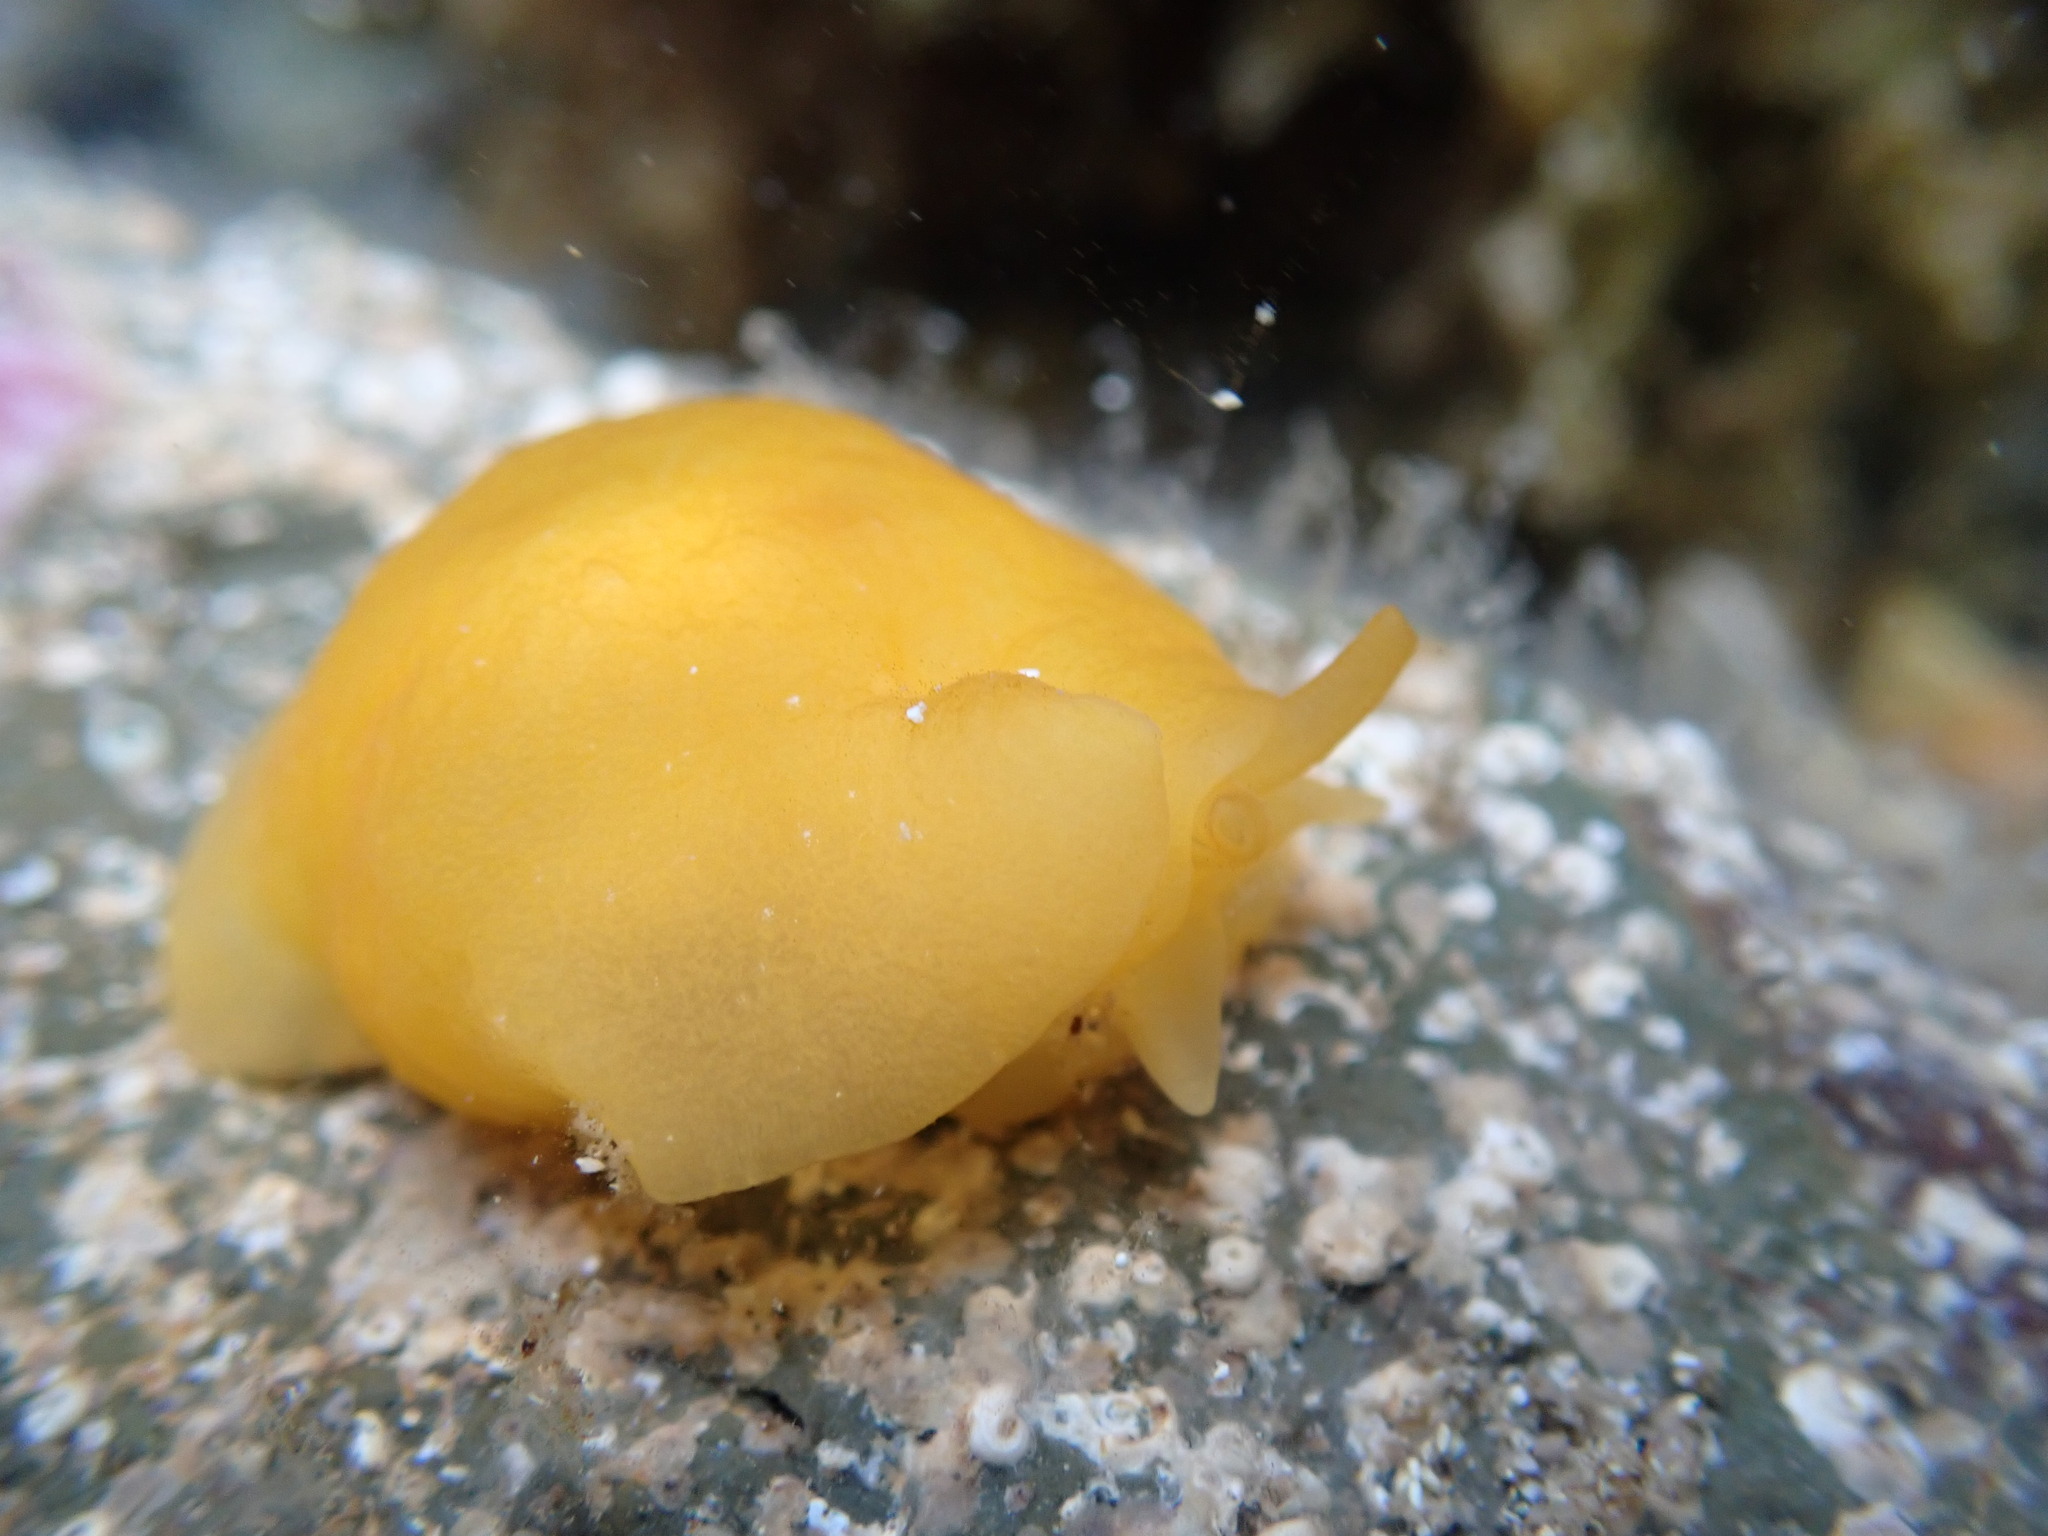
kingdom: Animalia
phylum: Mollusca
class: Gastropoda
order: Pleurobranchida
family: Pleurobranchidae
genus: Berthellina
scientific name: Berthellina citrina
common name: Lemon pleurobranch
